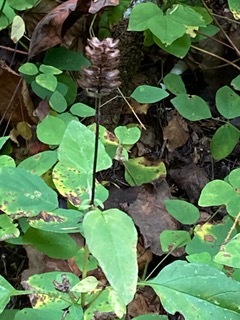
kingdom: Plantae
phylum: Tracheophyta
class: Magnoliopsida
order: Lamiales
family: Lamiaceae
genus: Prunella
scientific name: Prunella vulgaris
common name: Heal-all
